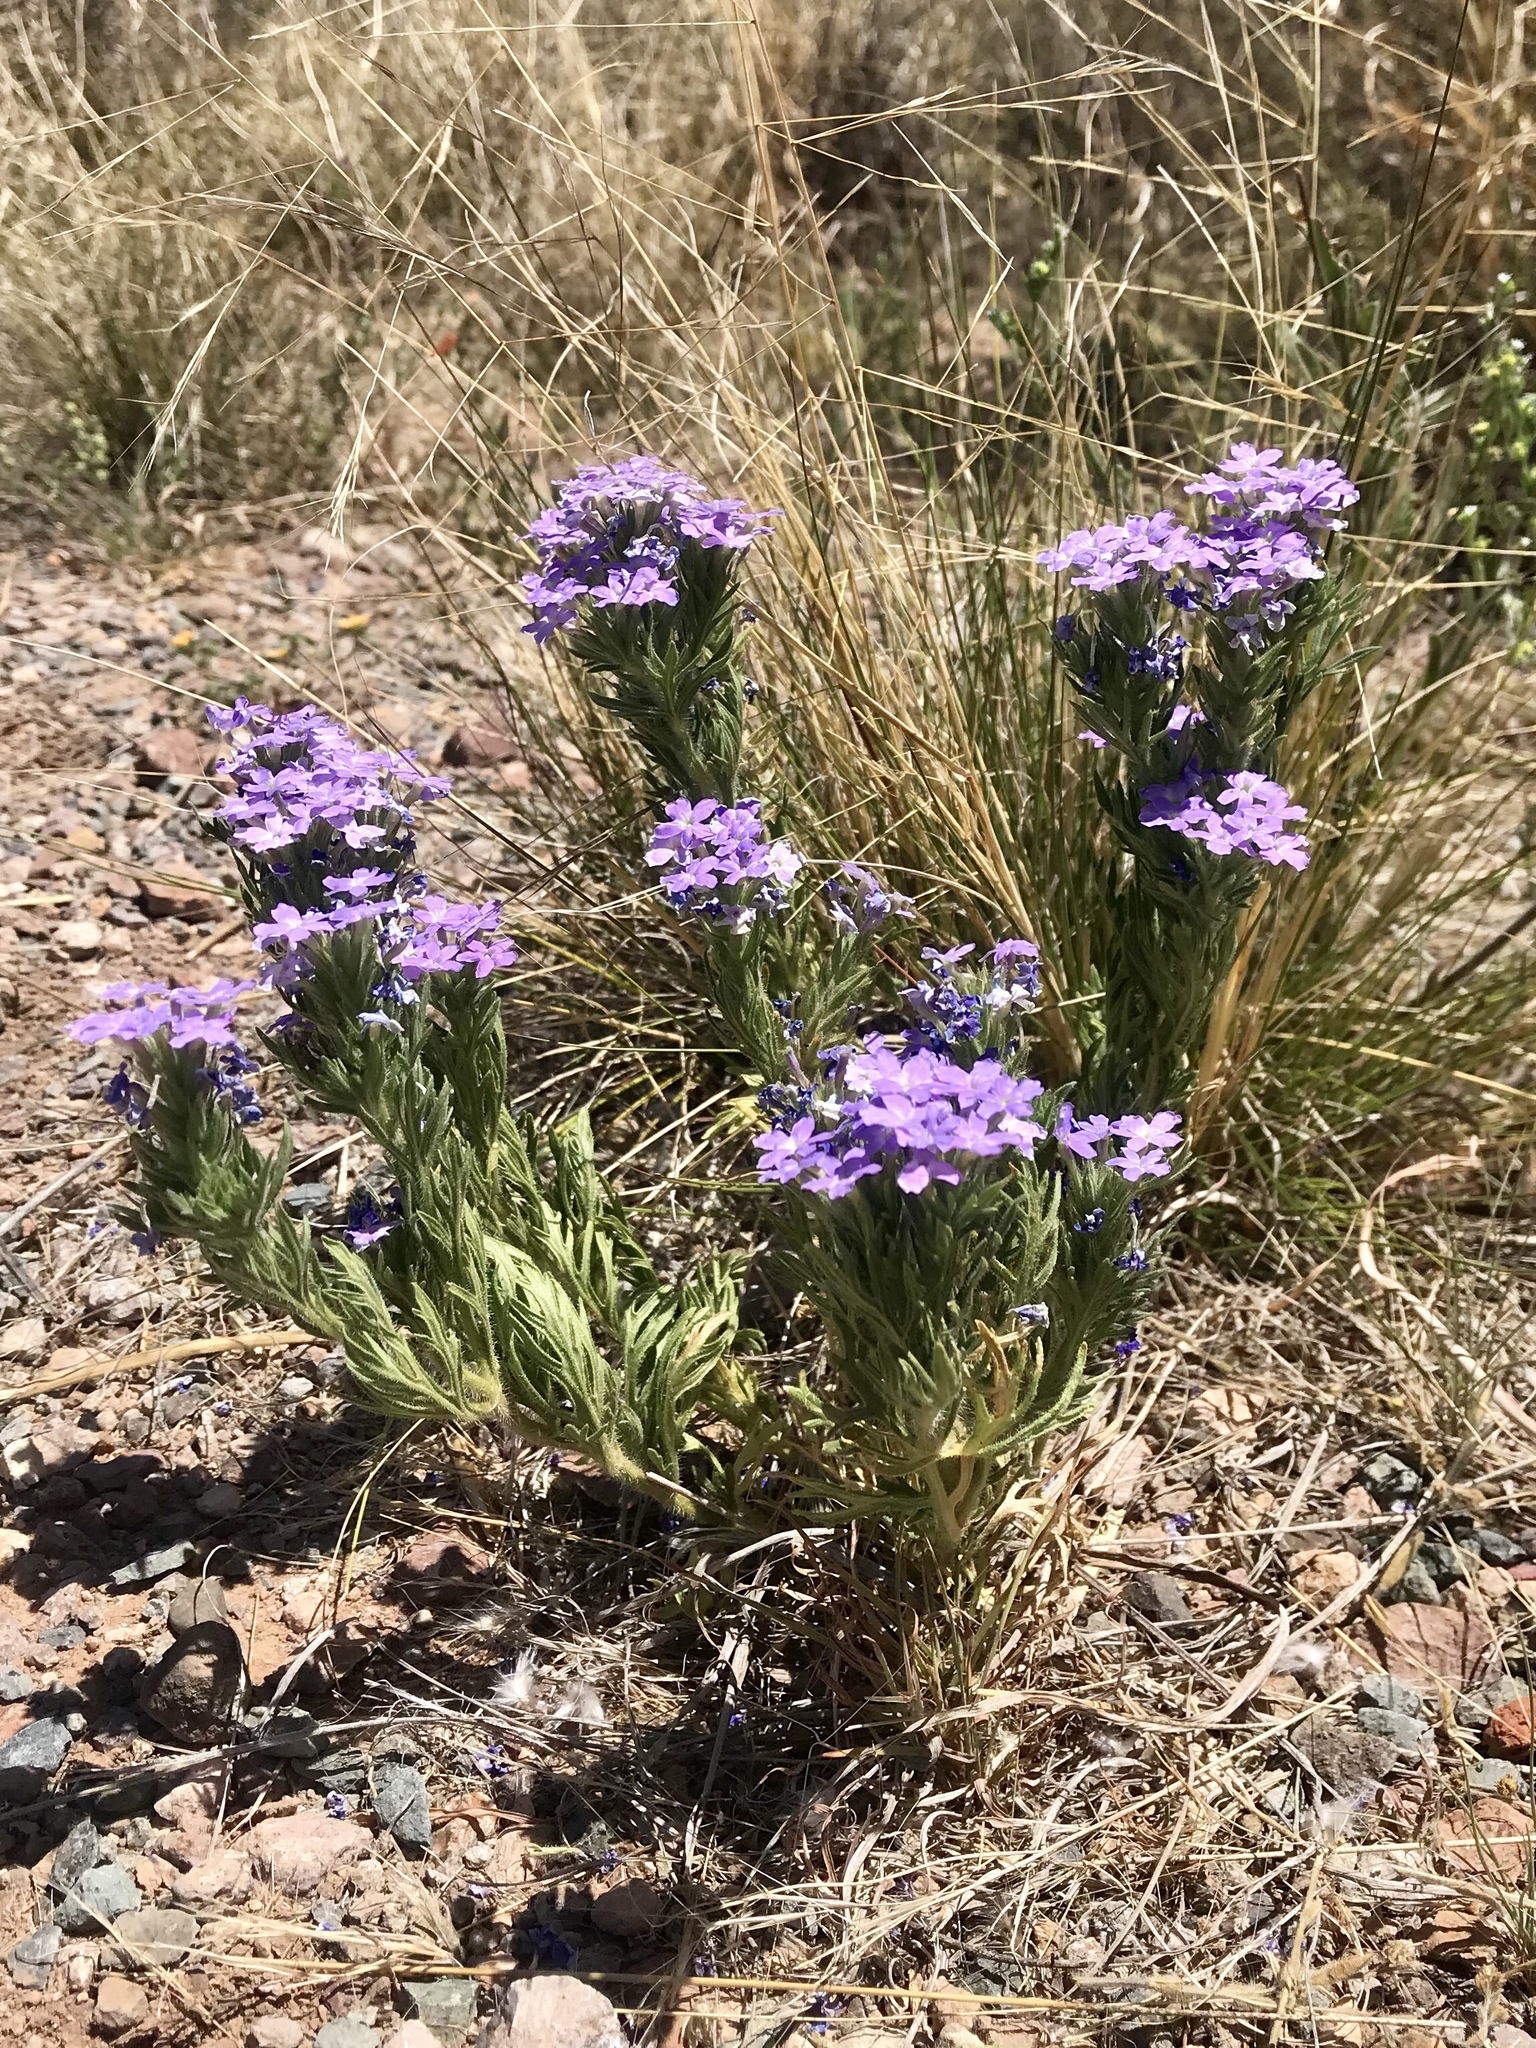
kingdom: Plantae
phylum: Tracheophyta
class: Magnoliopsida
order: Lamiales
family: Verbenaceae
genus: Verbena
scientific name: Verbena bipinnatifida
